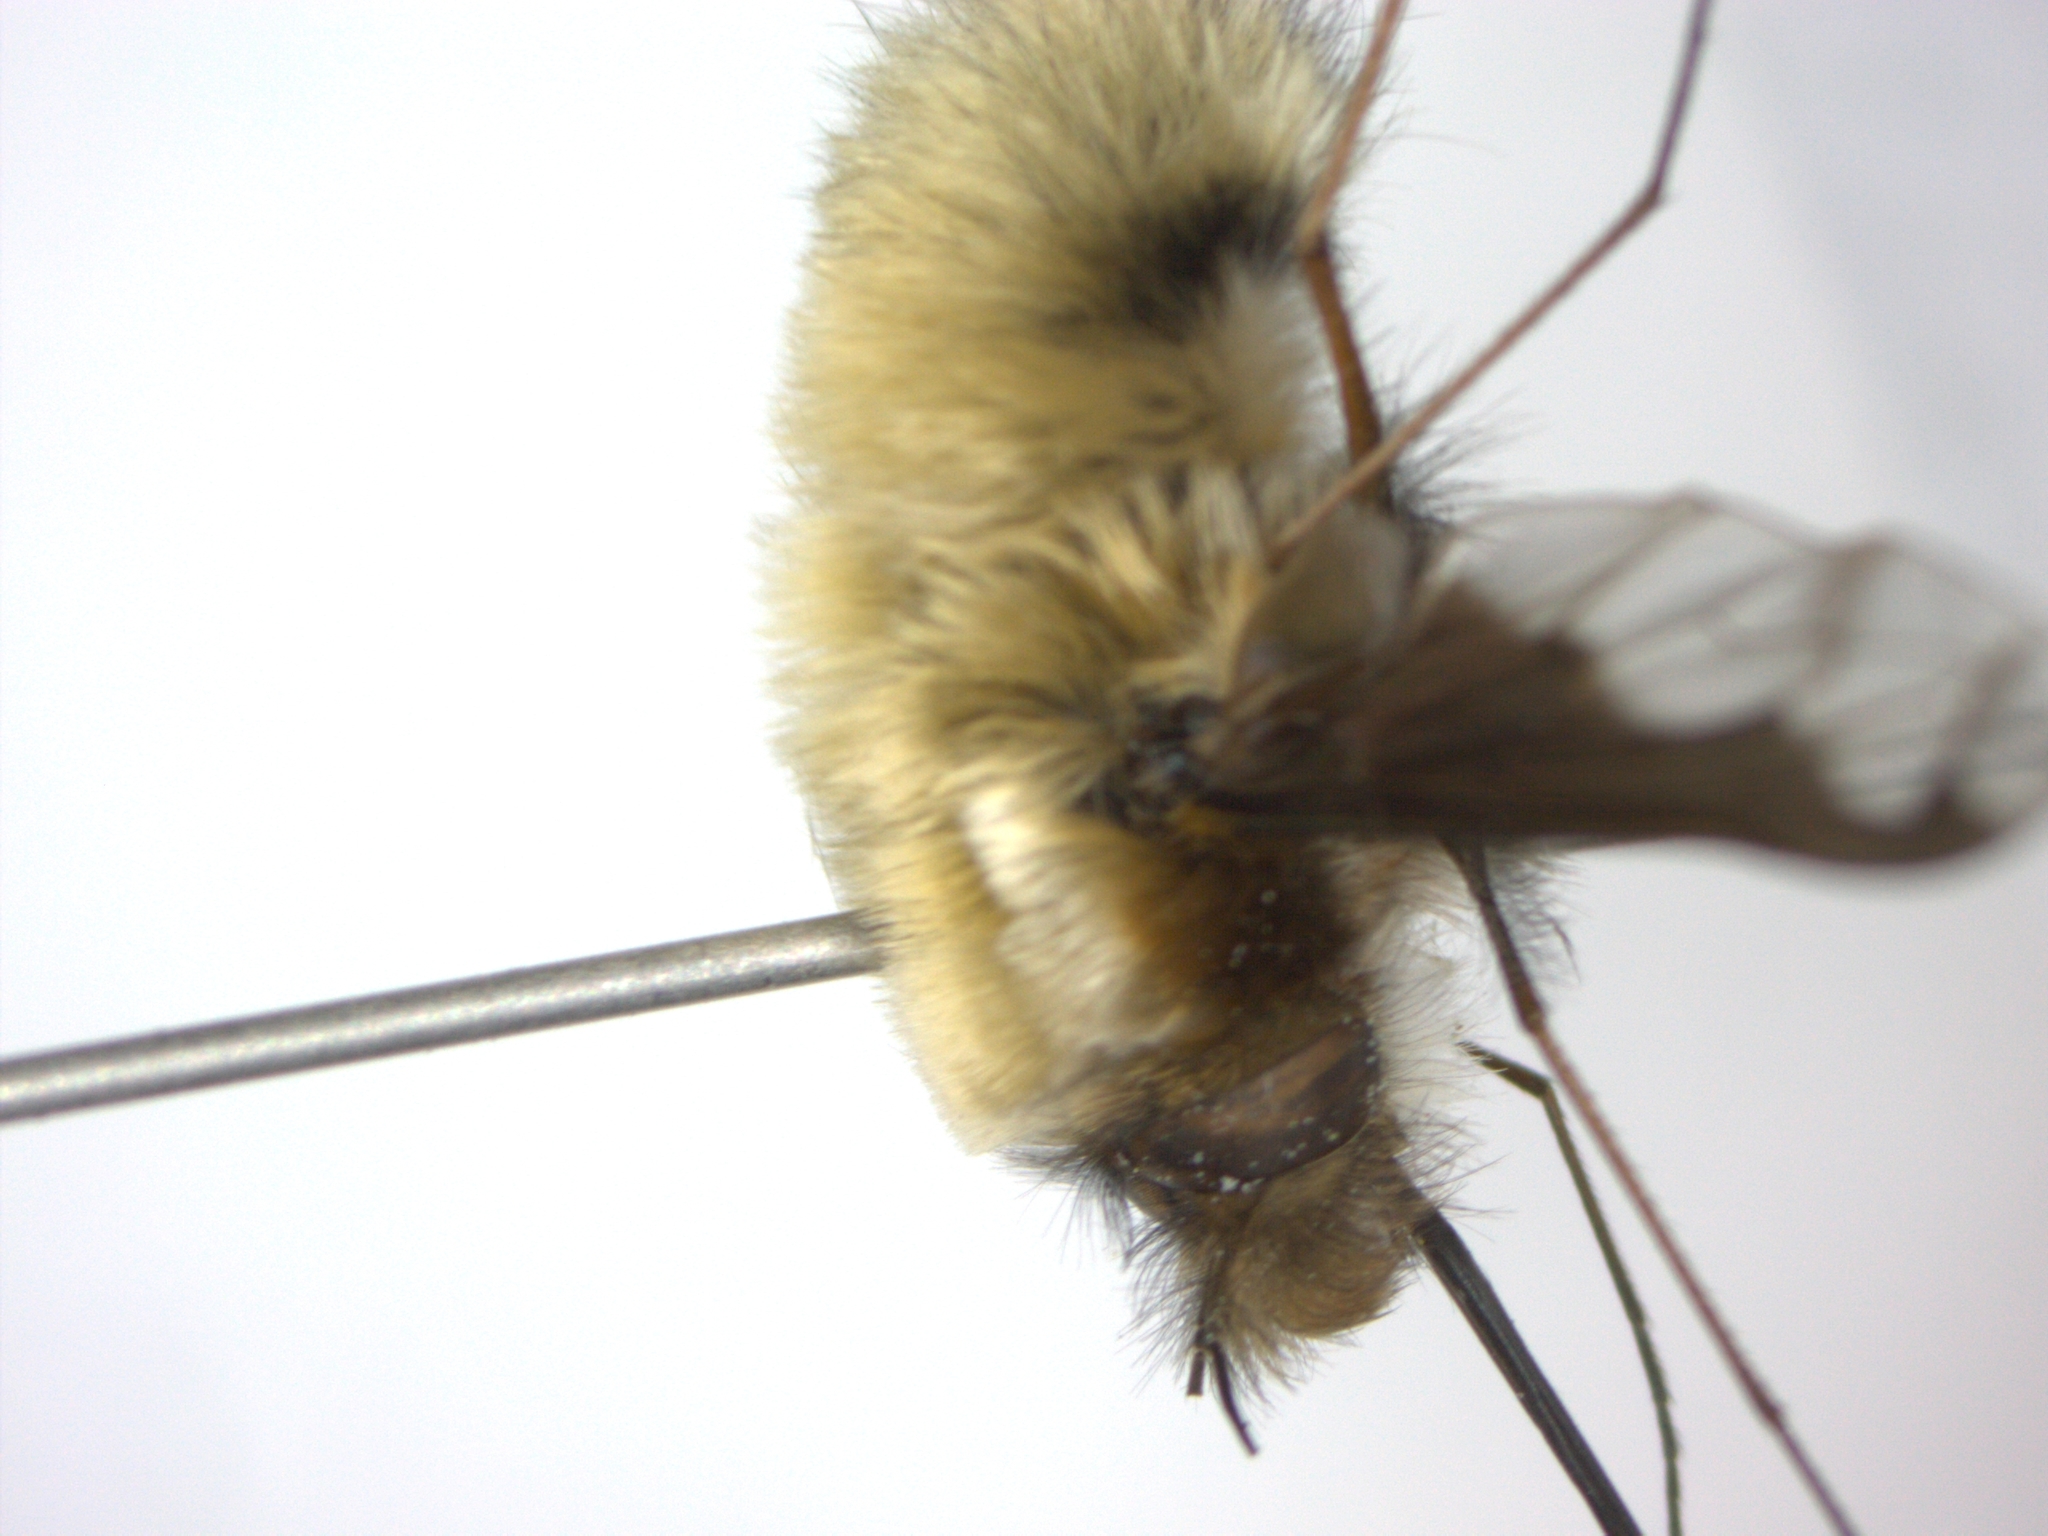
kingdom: Animalia
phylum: Arthropoda
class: Insecta
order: Diptera
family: Bombyliidae
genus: Bombylius
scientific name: Bombylius major
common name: Bee fly
